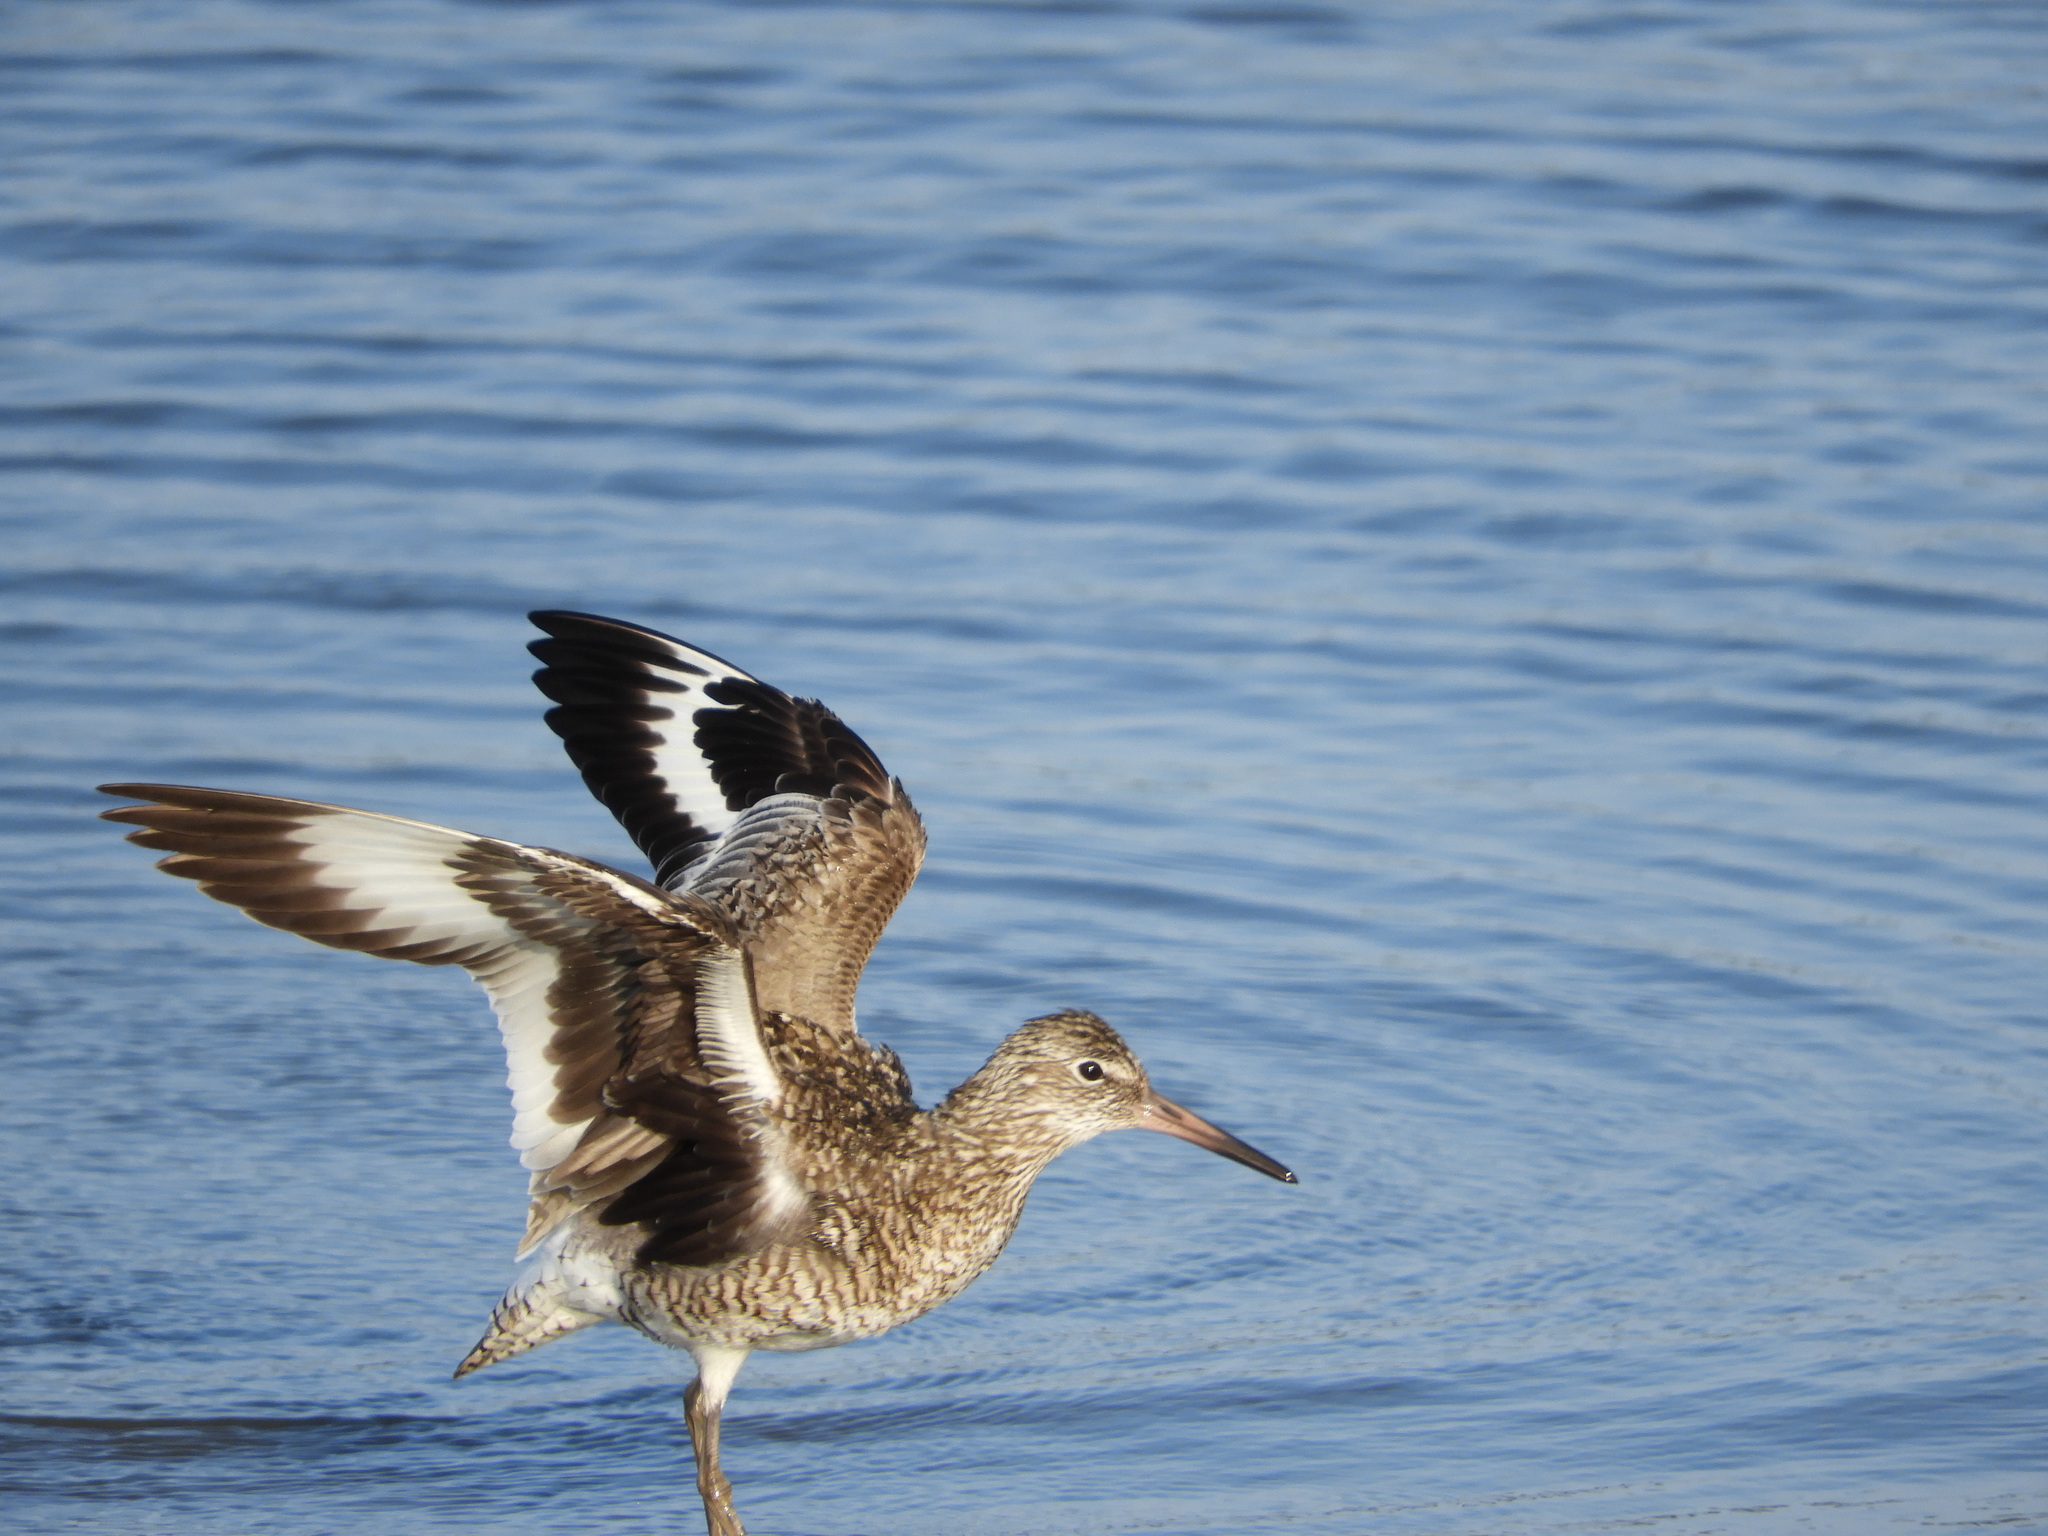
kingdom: Animalia
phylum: Chordata
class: Aves
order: Charadriiformes
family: Scolopacidae
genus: Tringa
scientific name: Tringa semipalmata
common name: Willet
